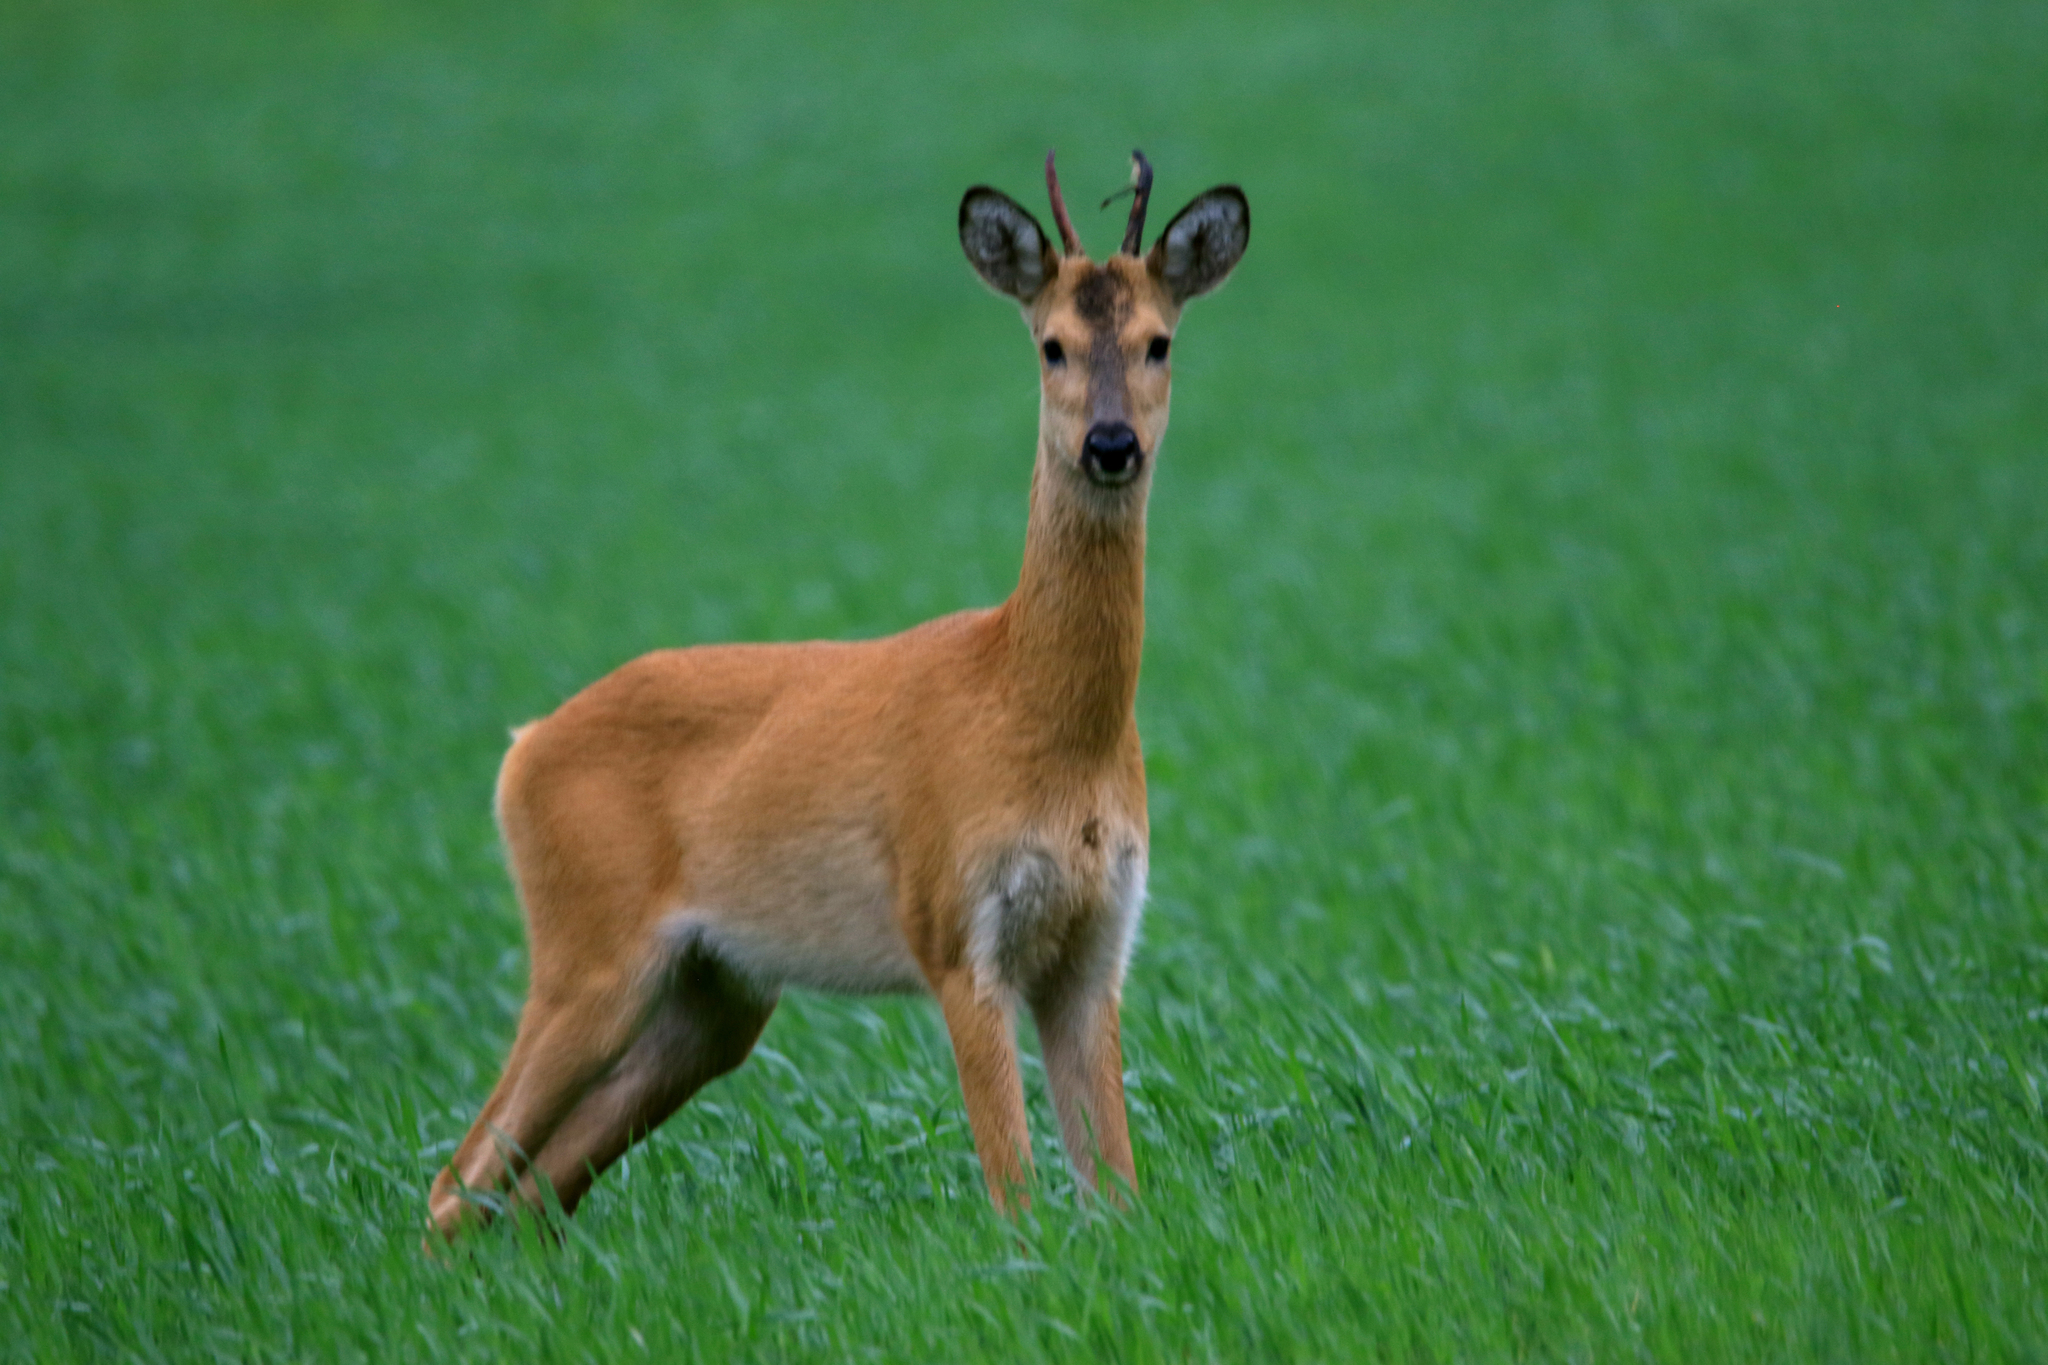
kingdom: Animalia
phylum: Chordata
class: Mammalia
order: Artiodactyla
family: Cervidae
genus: Capreolus
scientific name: Capreolus pygargus
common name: Siberian roe
